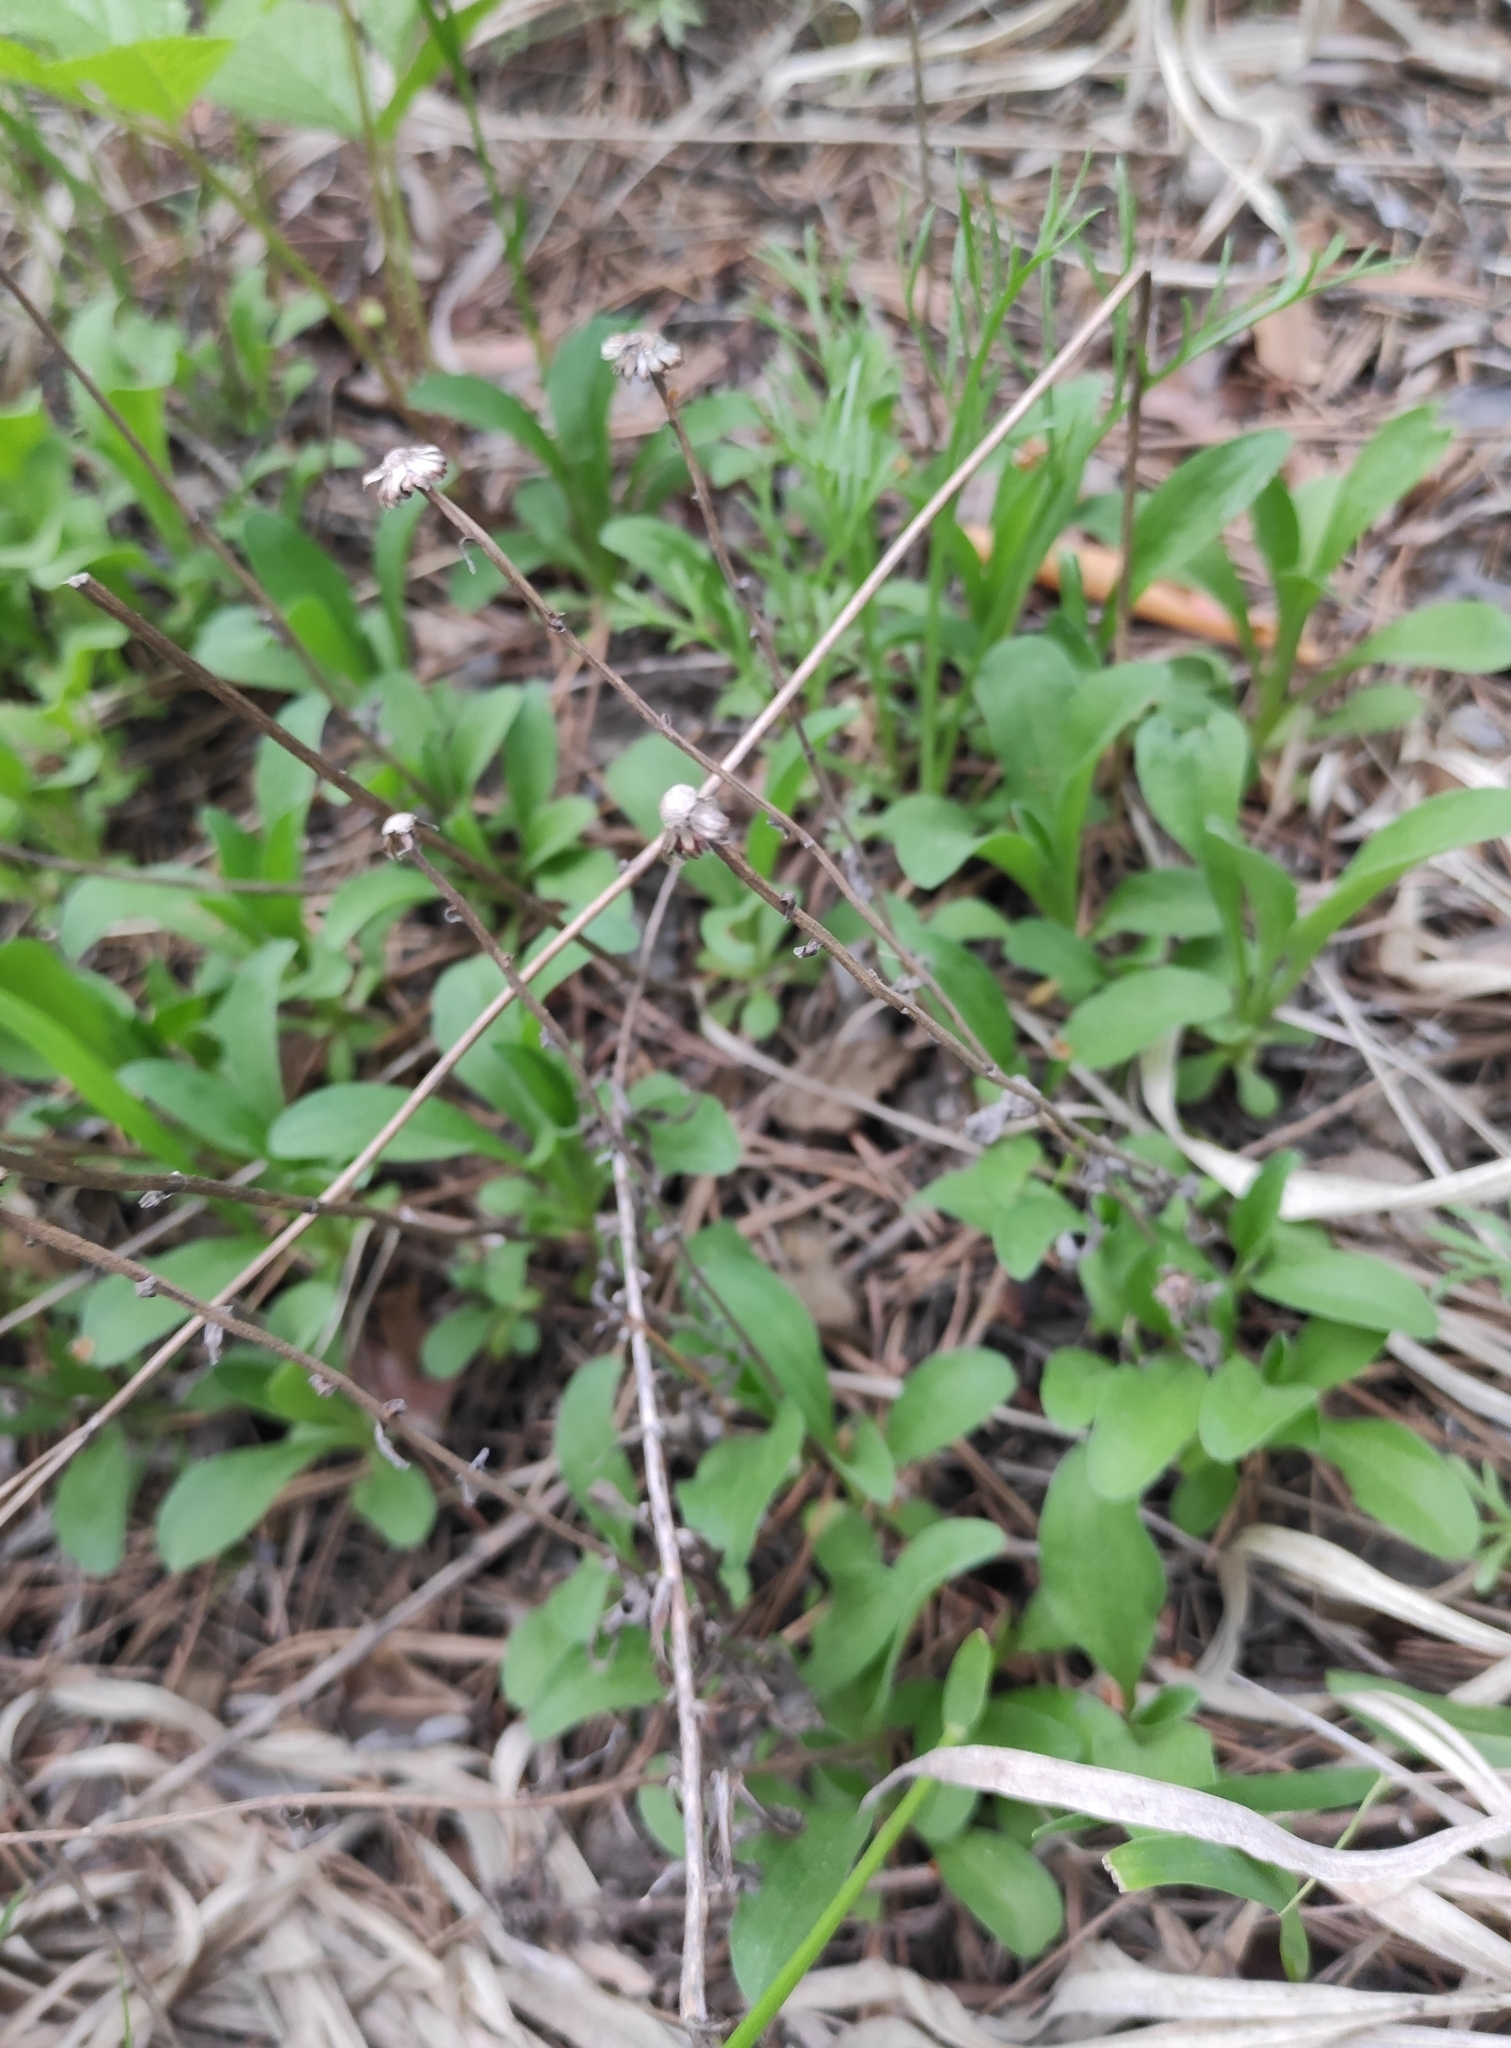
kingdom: Plantae
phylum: Tracheophyta
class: Magnoliopsida
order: Asterales
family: Asteraceae
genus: Aster
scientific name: Aster alpinus
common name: Alpine aster
